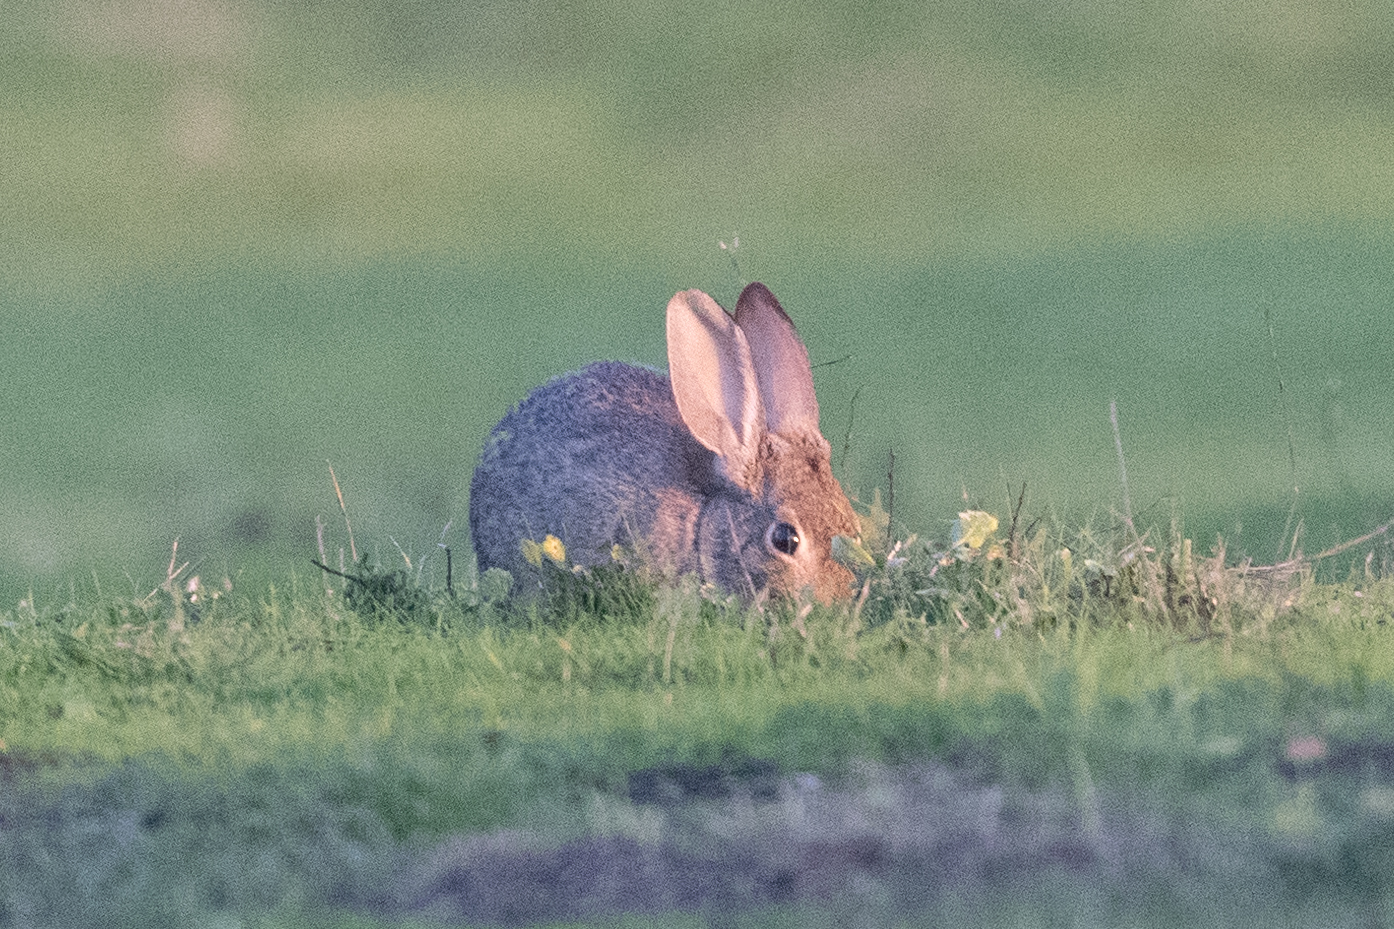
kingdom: Animalia
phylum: Chordata
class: Mammalia
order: Lagomorpha
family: Leporidae
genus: Sylvilagus
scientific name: Sylvilagus audubonii
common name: Desert cottontail
